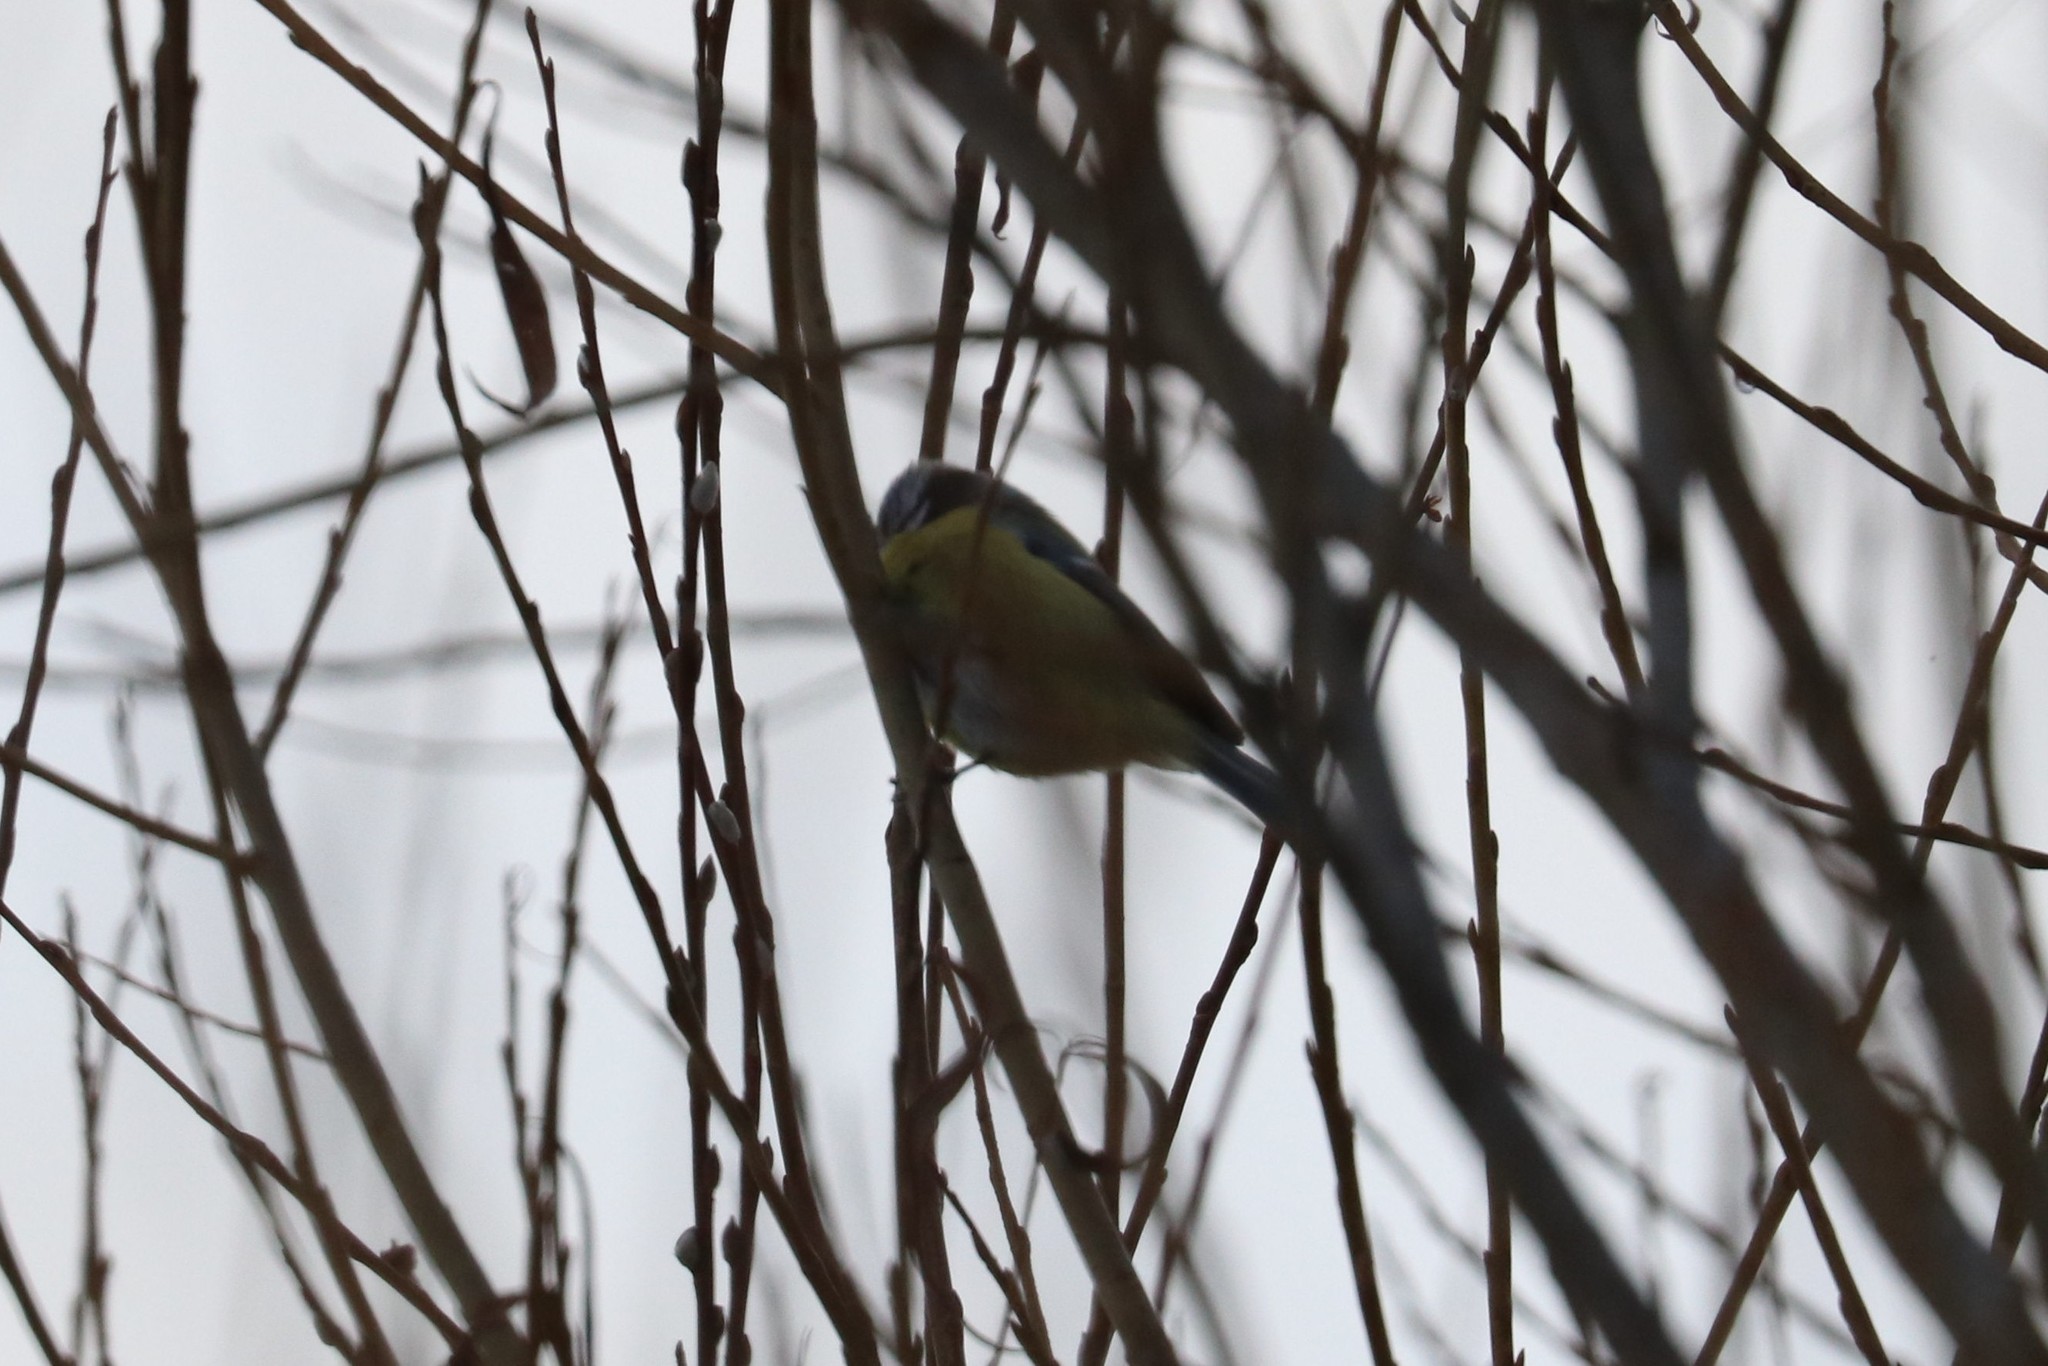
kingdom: Animalia
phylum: Chordata
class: Aves
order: Passeriformes
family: Paridae
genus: Cyanistes
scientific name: Cyanistes caeruleus
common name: Eurasian blue tit
